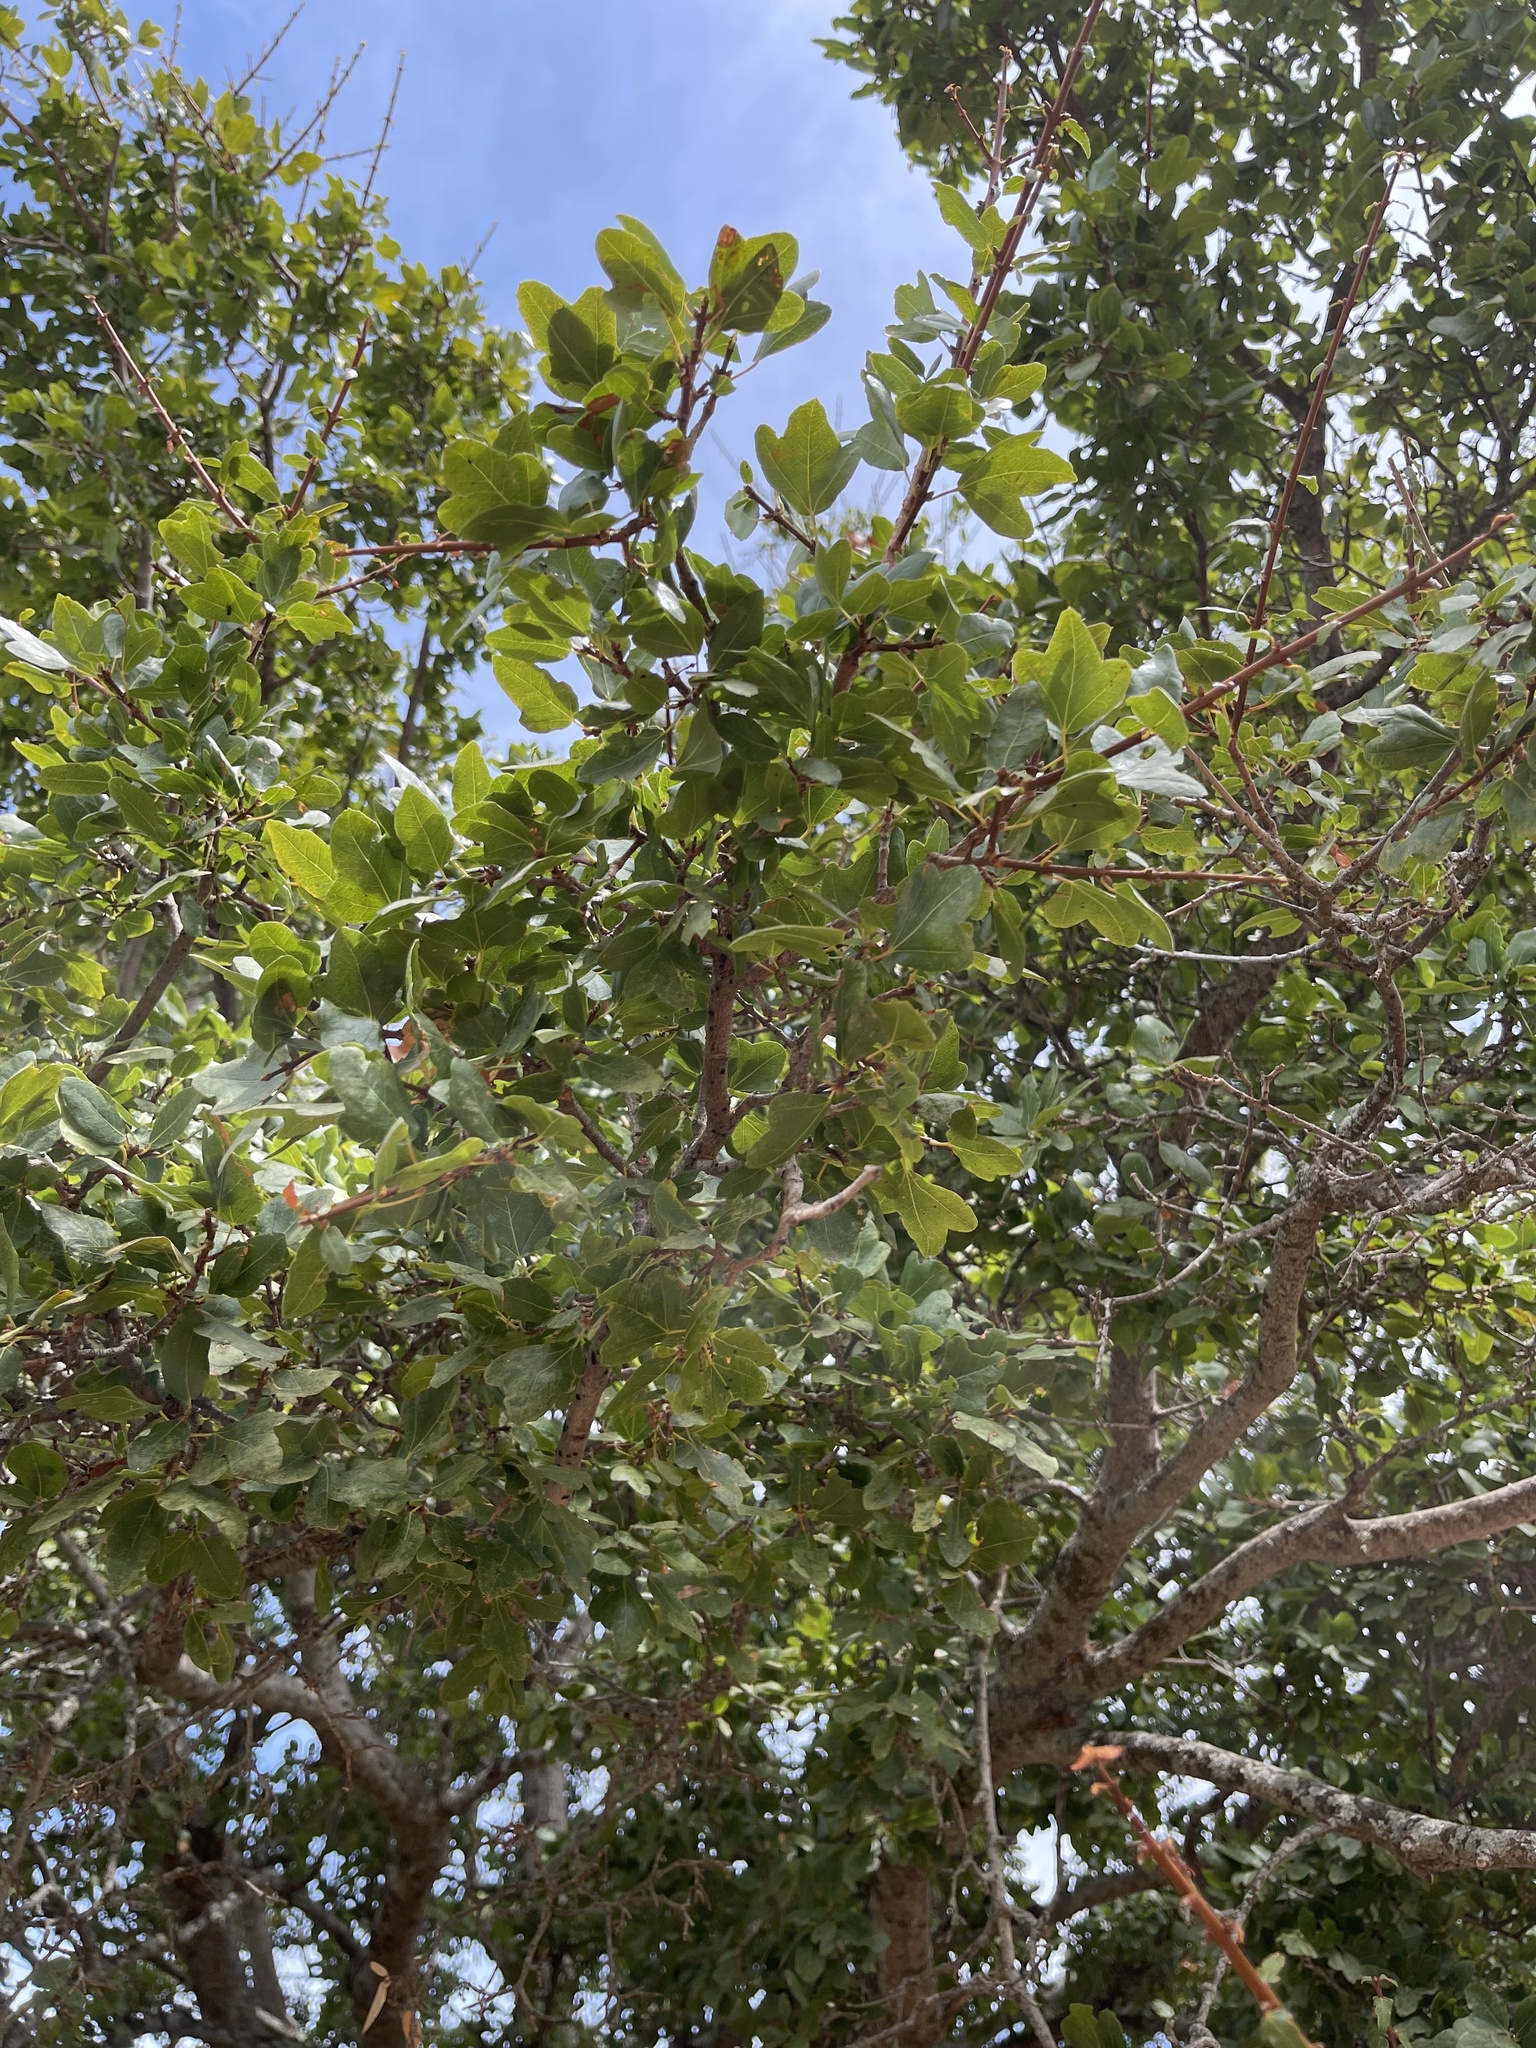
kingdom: Plantae
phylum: Tracheophyta
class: Magnoliopsida
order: Sapindales
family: Sapindaceae
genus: Acer
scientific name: Acer sempervirens
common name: Cretan maple
